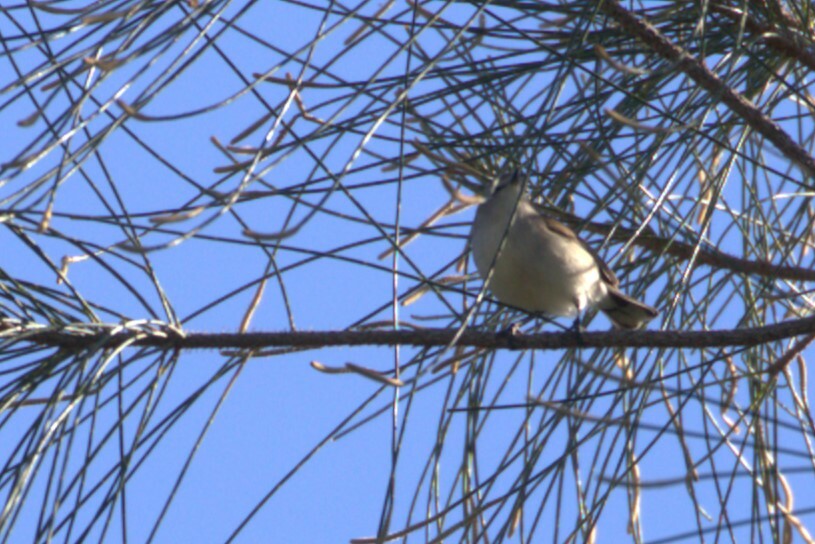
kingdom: Animalia
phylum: Chordata
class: Aves
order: Passeriformes
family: Acanthizidae
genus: Gerygone
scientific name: Gerygone levigaster
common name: Mangrove gerygone
